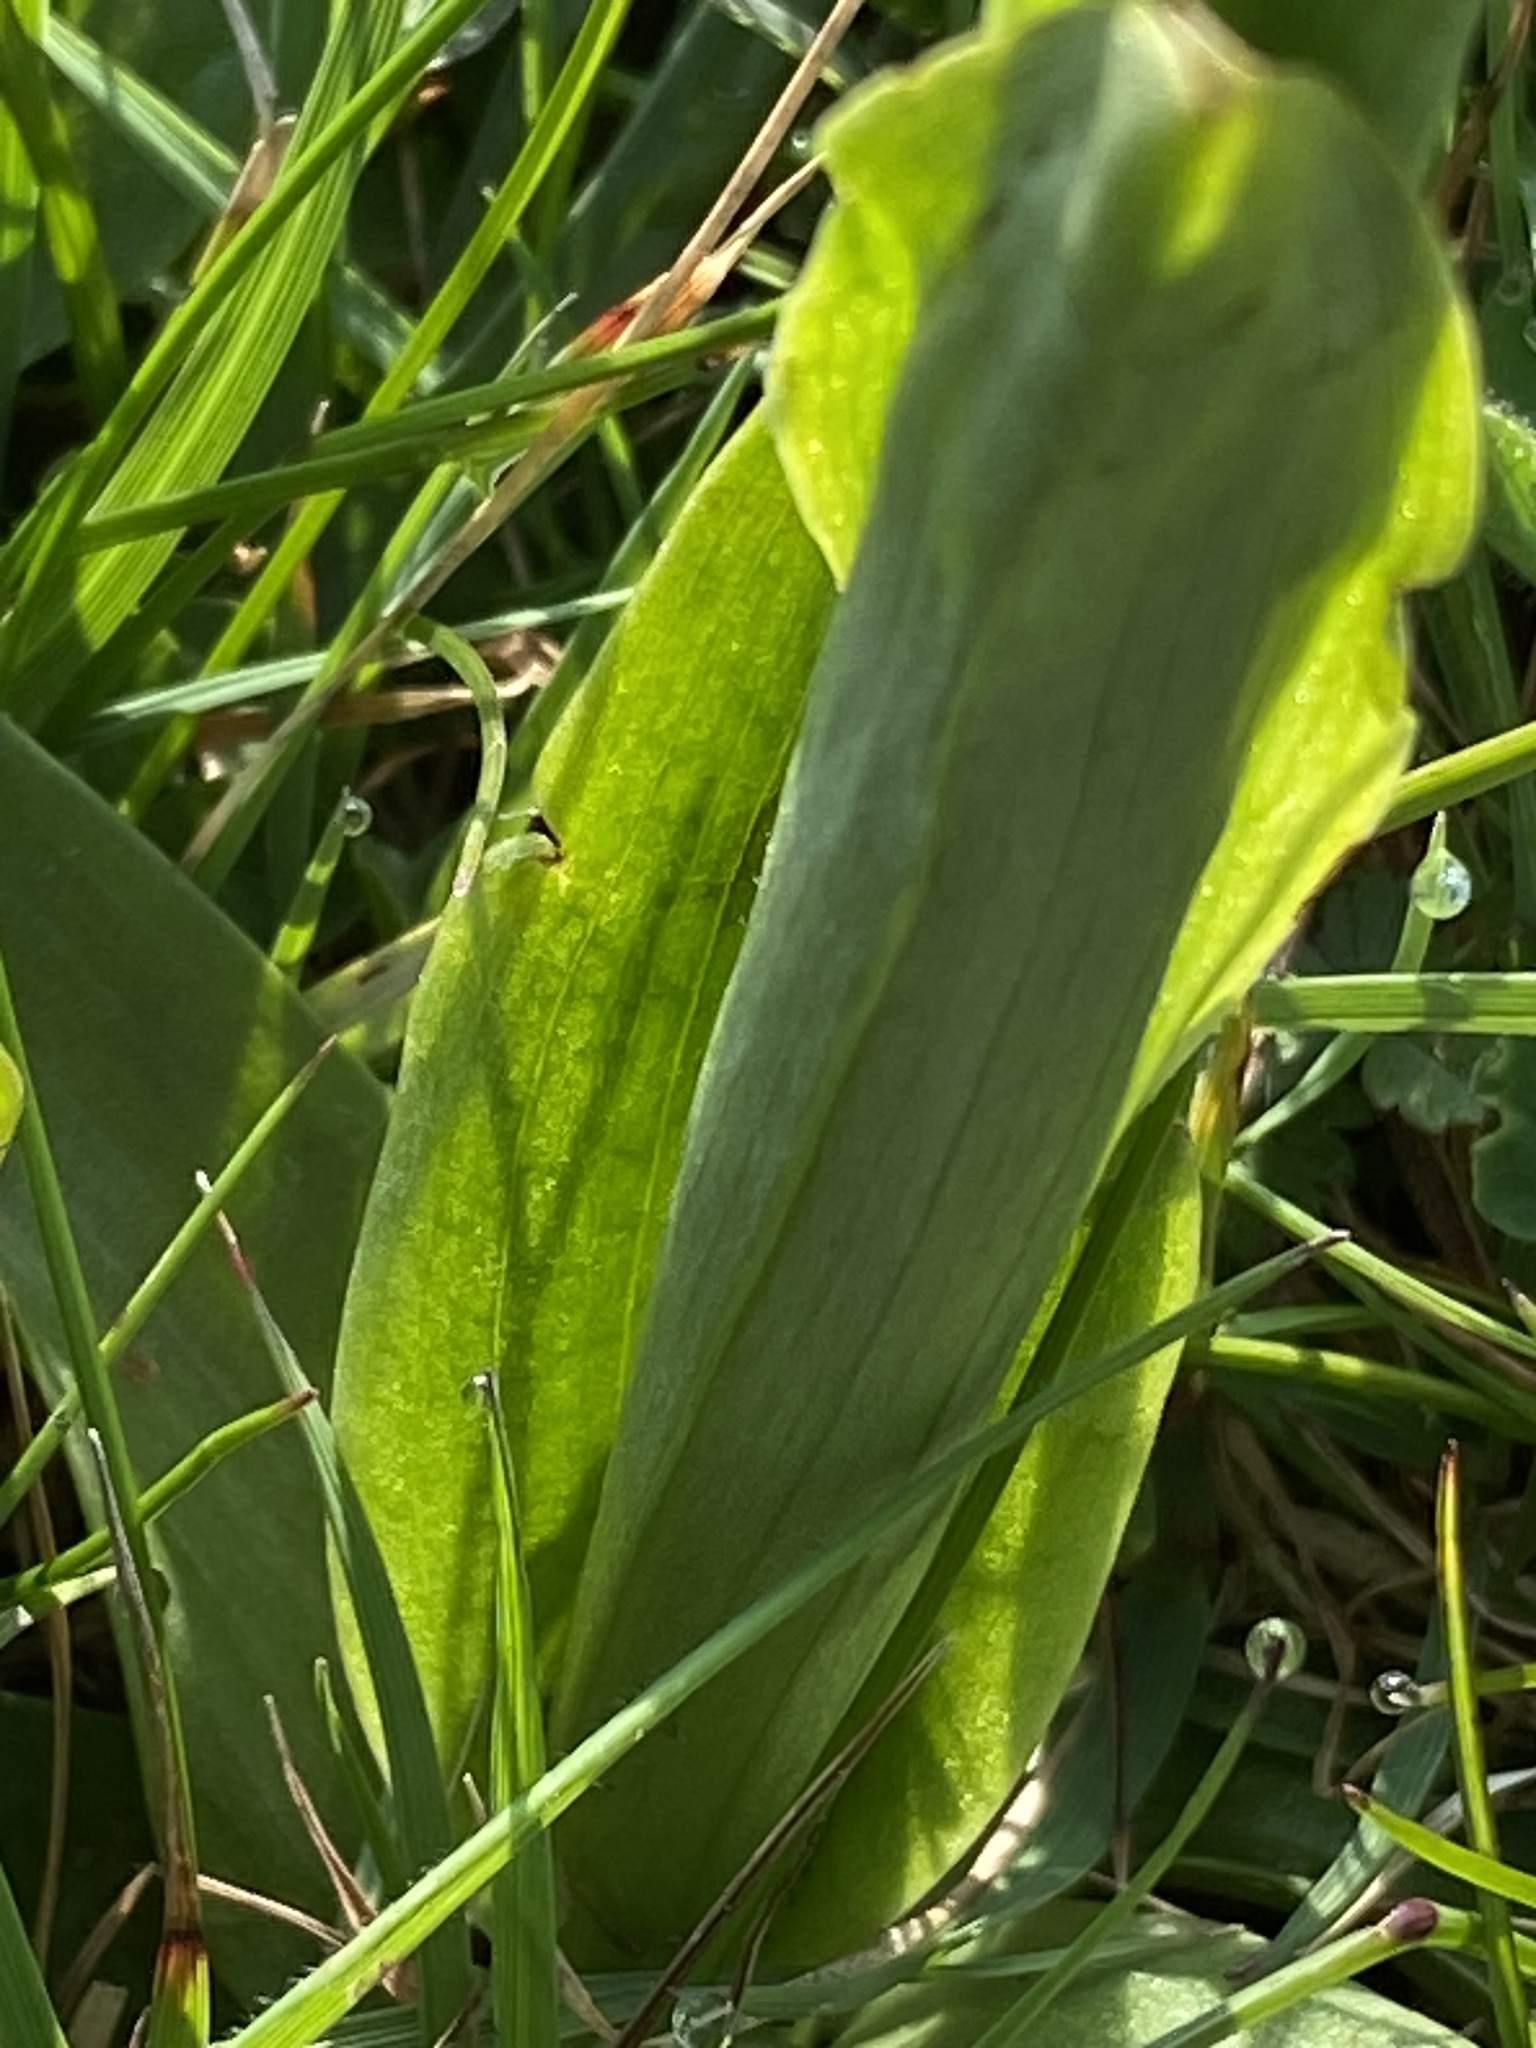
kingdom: Plantae
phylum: Tracheophyta
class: Liliopsida
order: Asparagales
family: Orchidaceae
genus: Anacamptis
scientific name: Anacamptis morio
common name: Green-winged orchid
